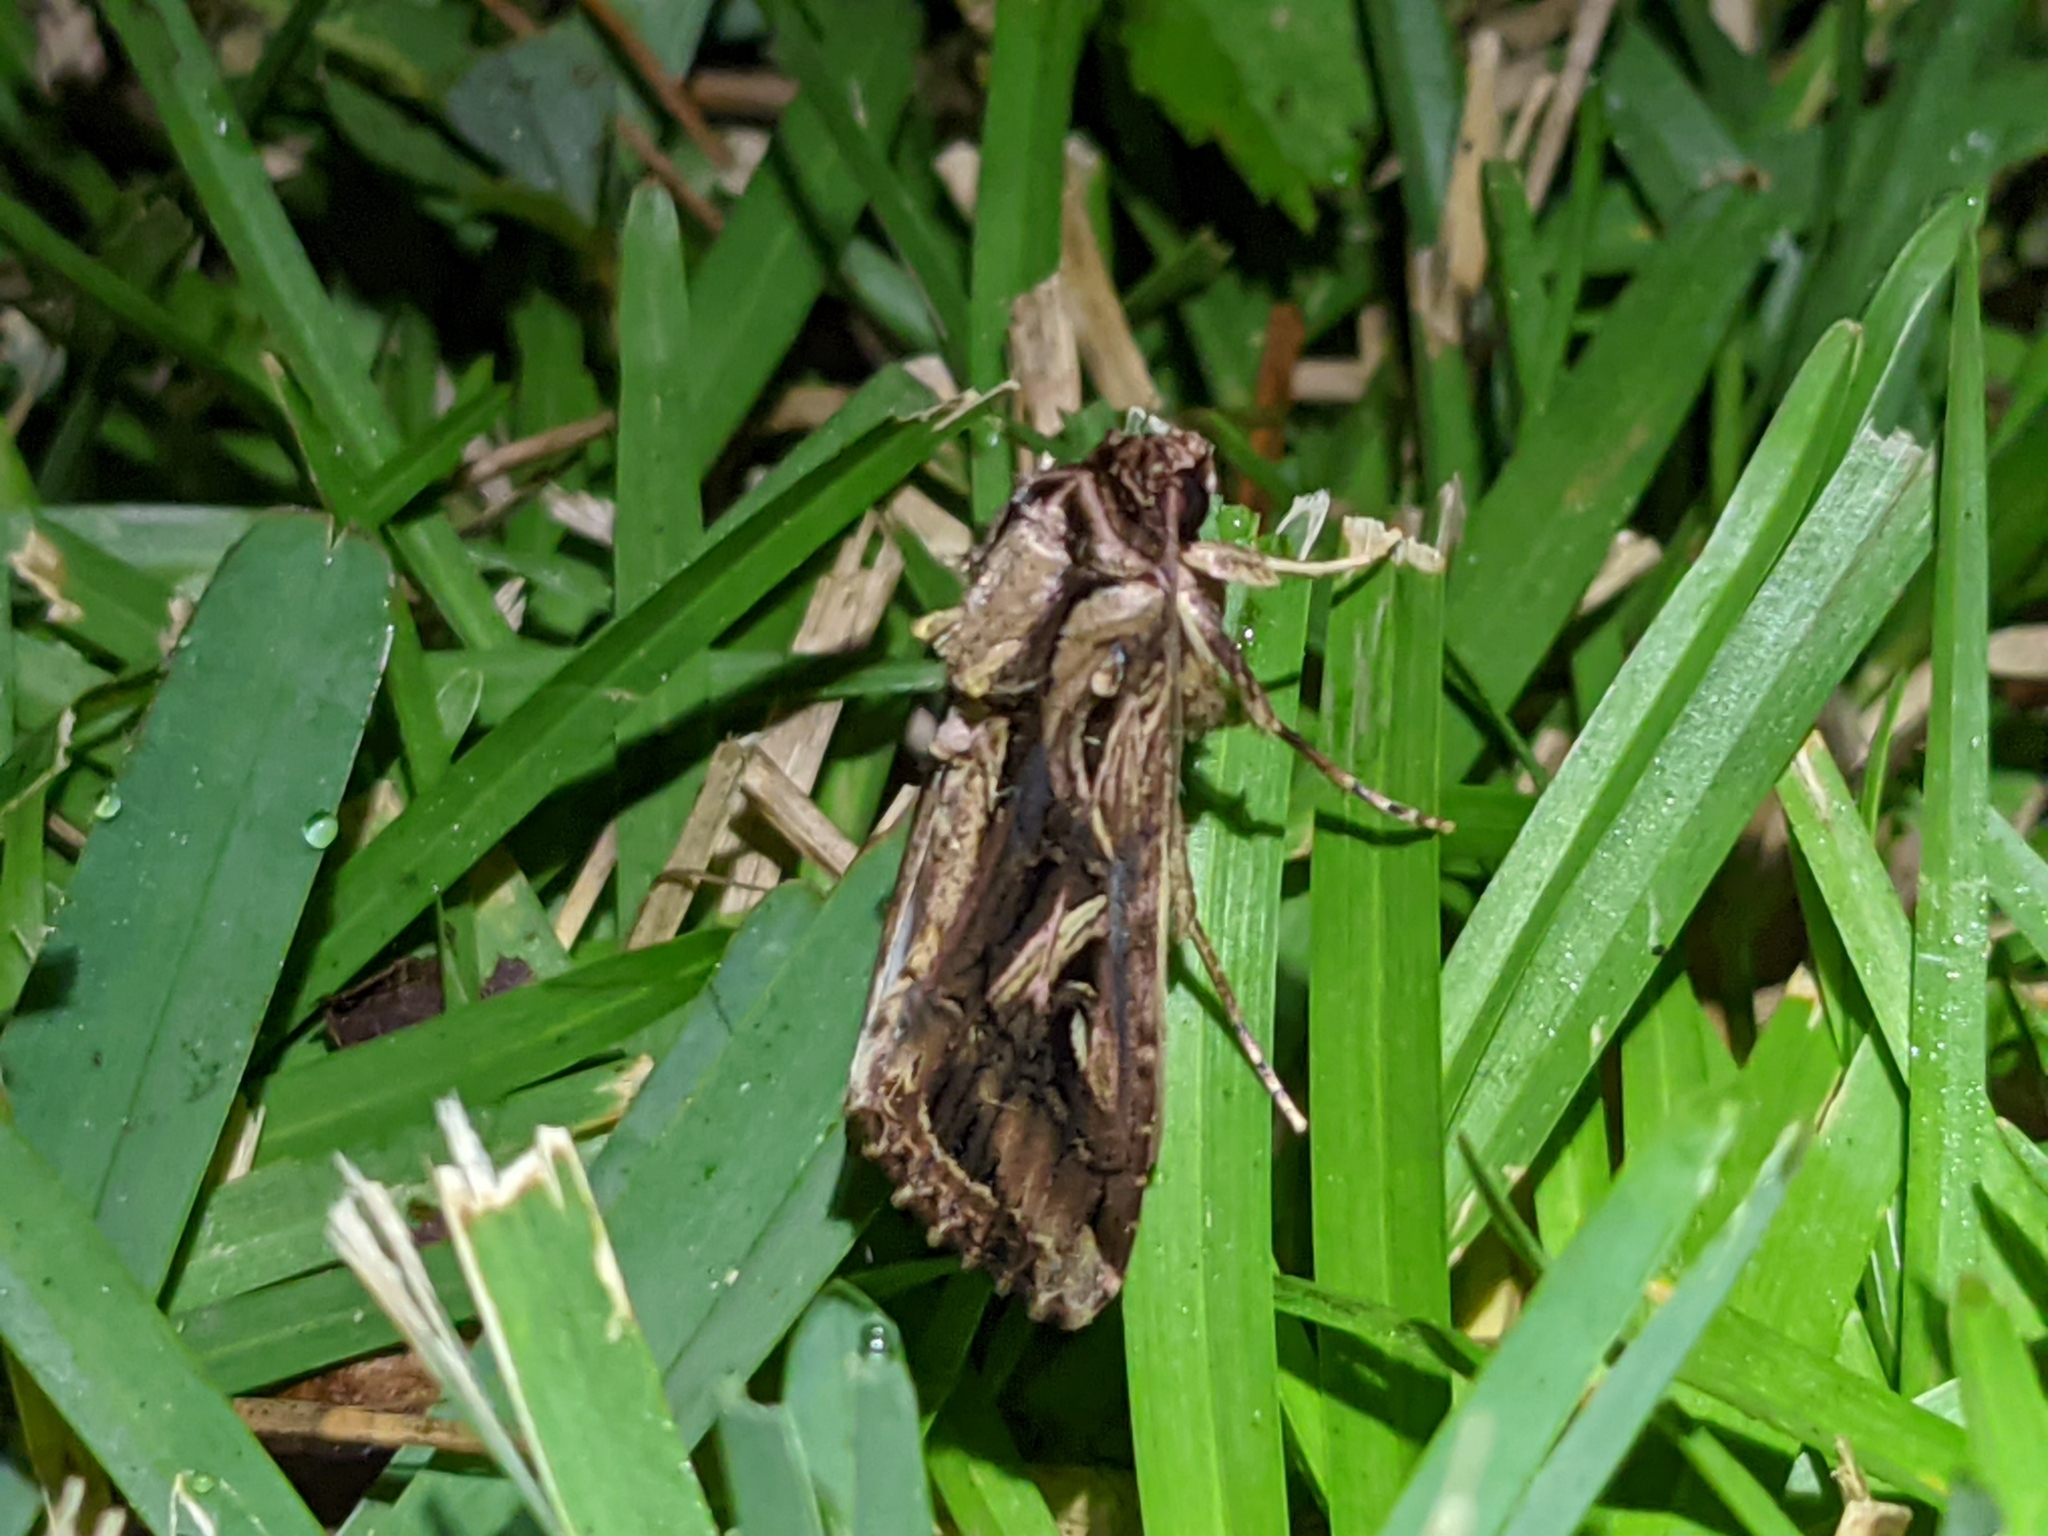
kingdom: Animalia
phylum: Arthropoda
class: Insecta
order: Lepidoptera
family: Noctuidae
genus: Spodoptera
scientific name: Spodoptera dolichos
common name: Sweetpotato armyworm
